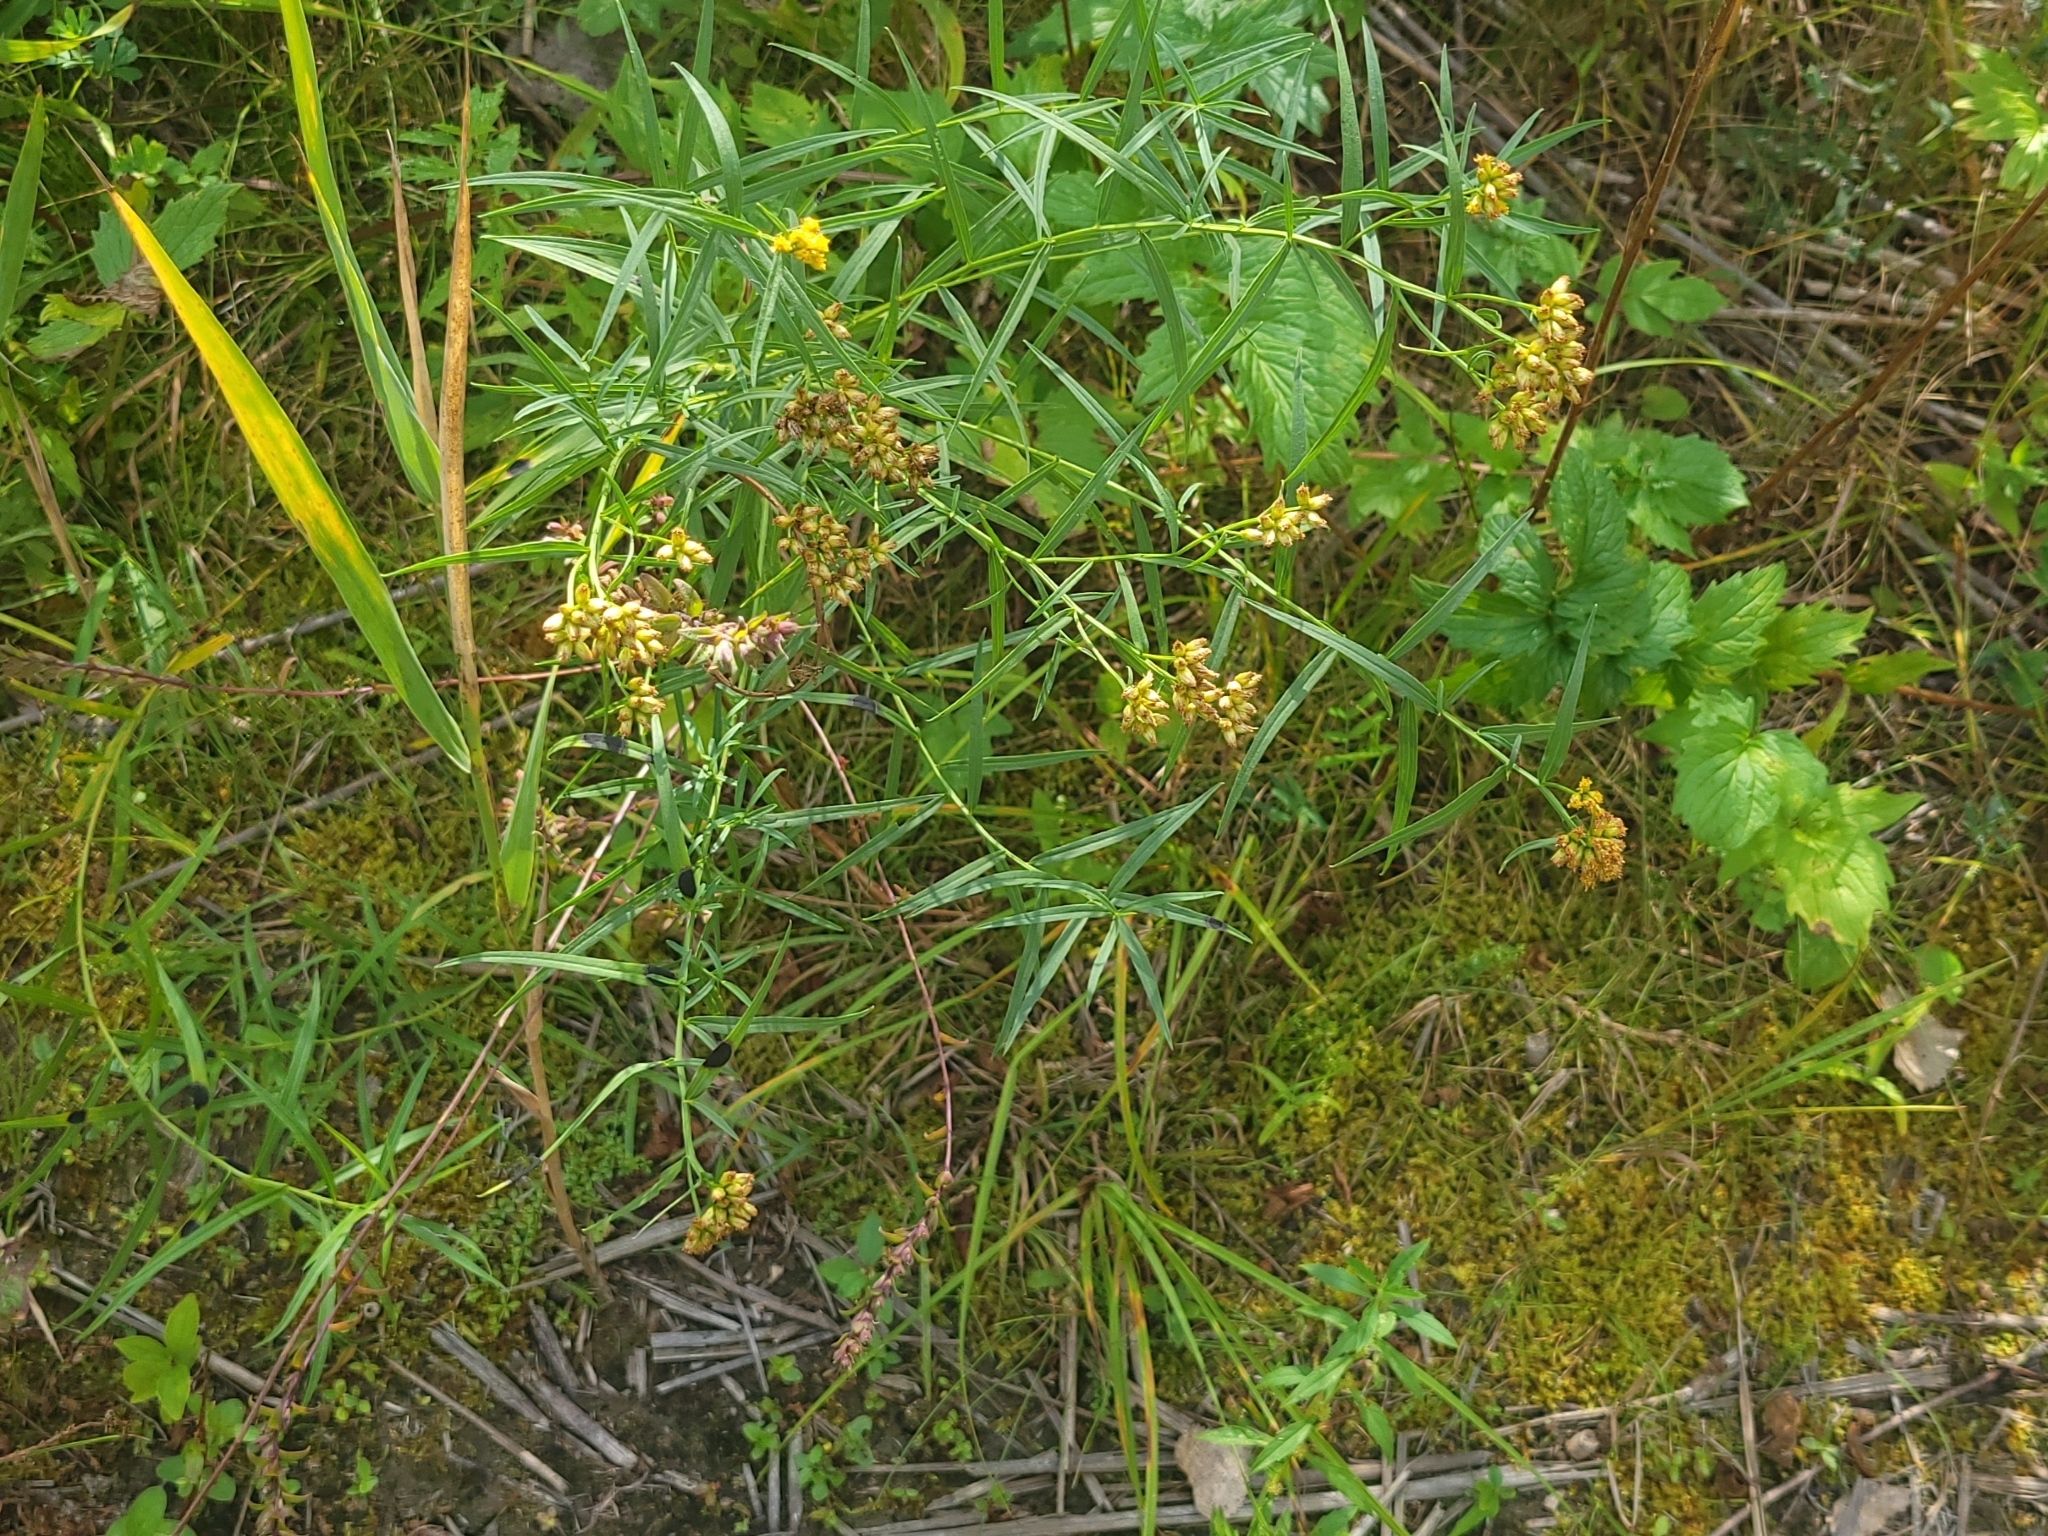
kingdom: Plantae
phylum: Tracheophyta
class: Magnoliopsida
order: Asterales
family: Asteraceae
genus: Euthamia
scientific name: Euthamia graminifolia
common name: Common goldentop
